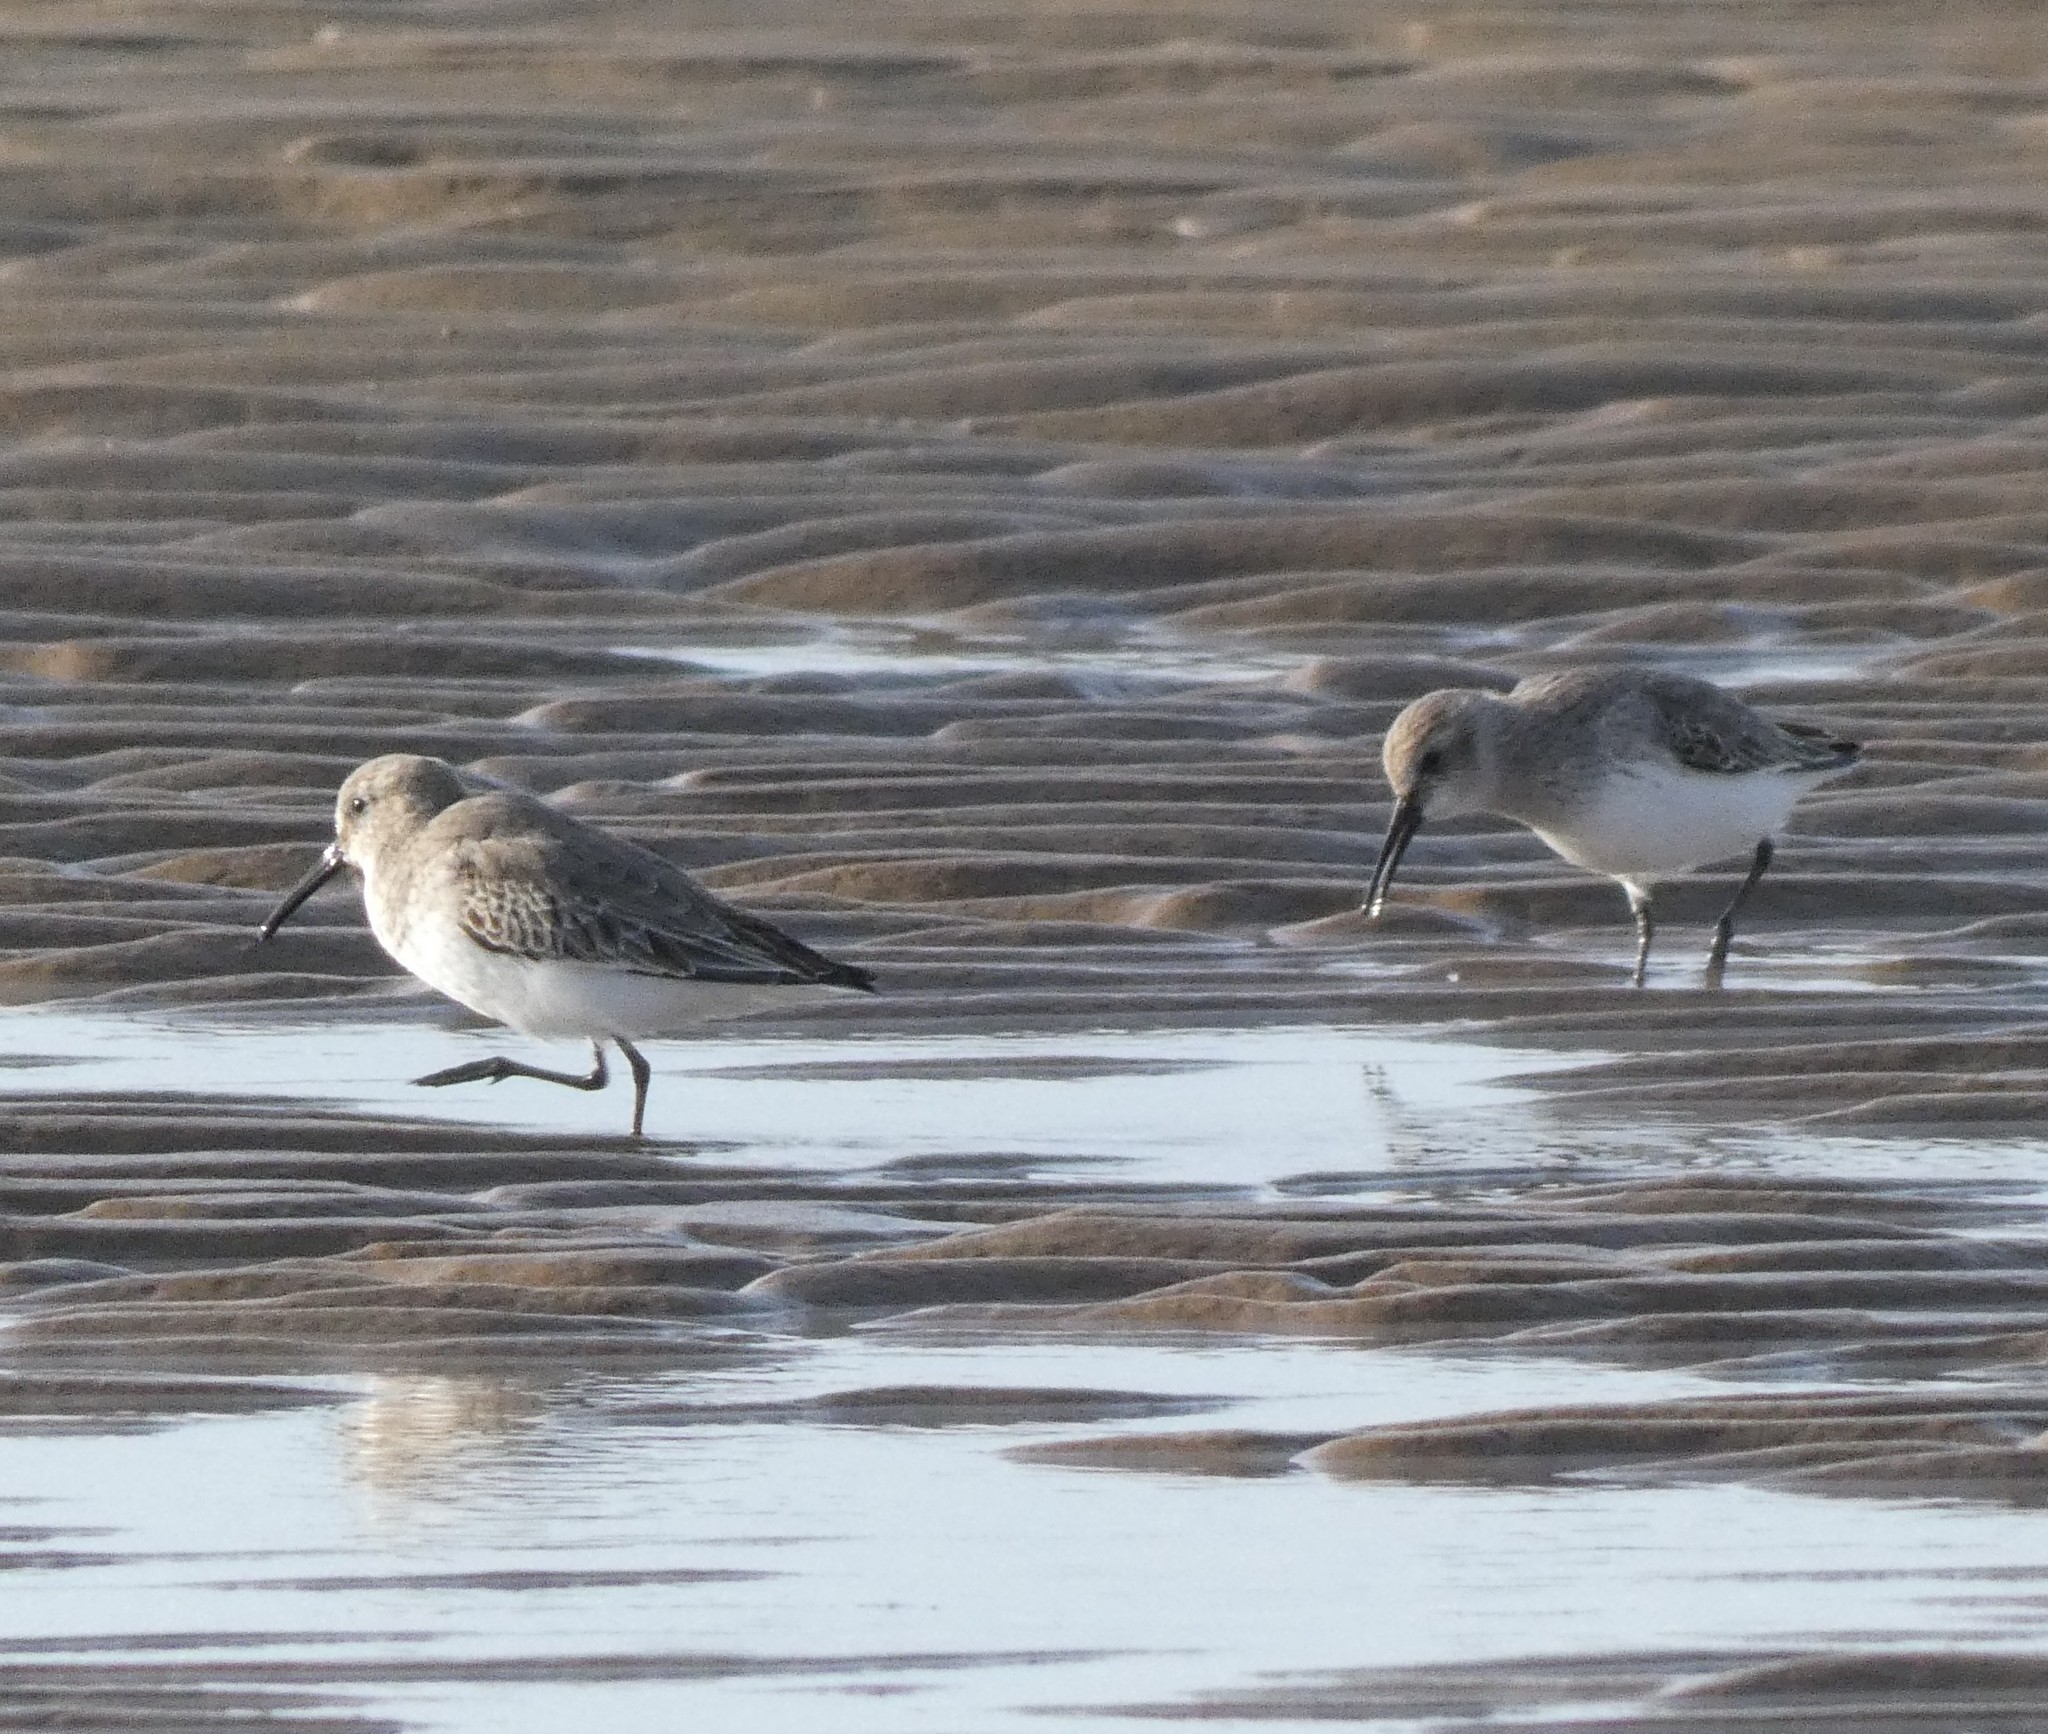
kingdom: Animalia
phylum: Chordata
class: Aves
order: Charadriiformes
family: Scolopacidae
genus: Calidris
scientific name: Calidris alpina
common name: Dunlin
